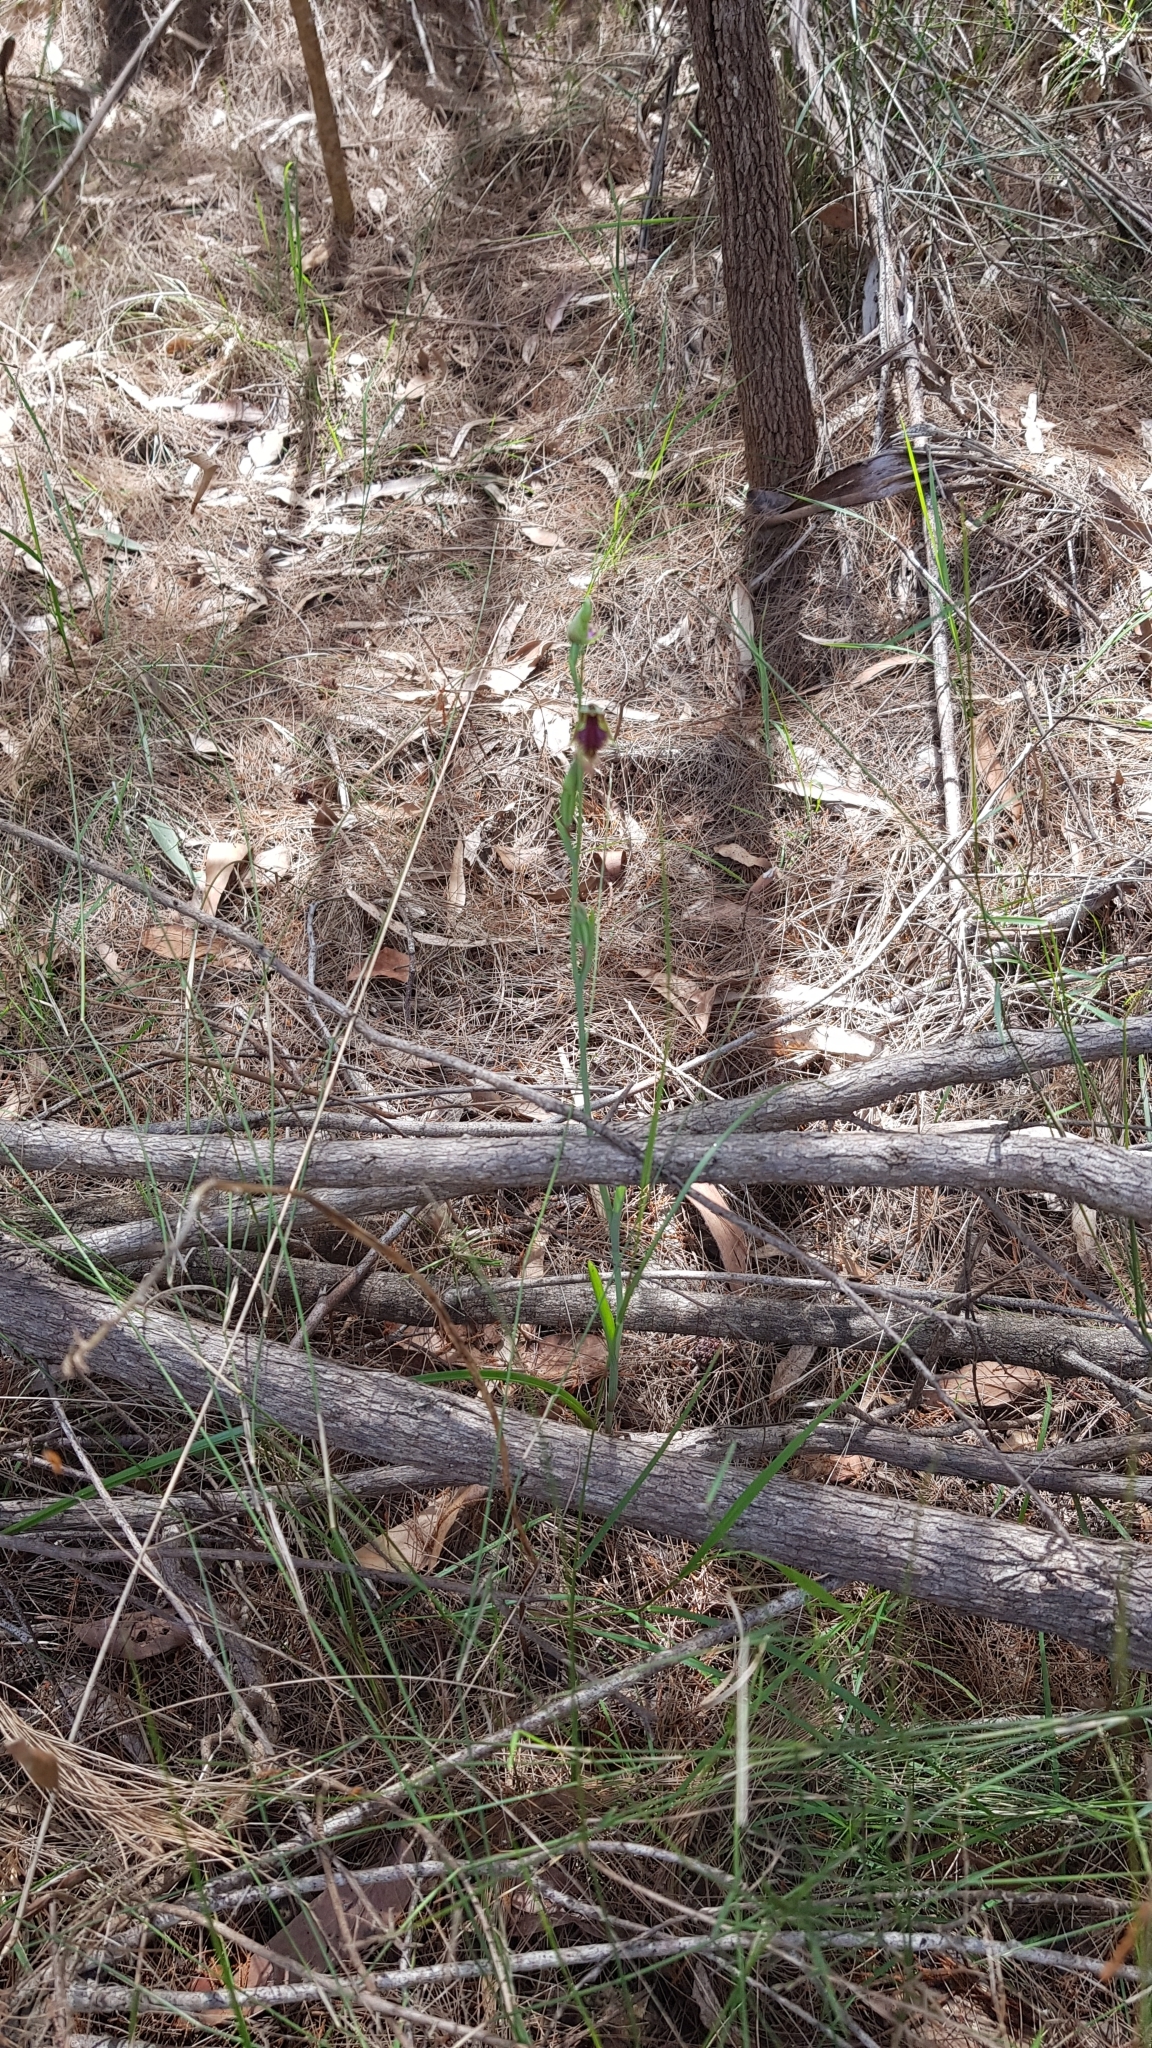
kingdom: Plantae
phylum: Tracheophyta
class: Liliopsida
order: Asparagales
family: Orchidaceae
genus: Calochilus
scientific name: Calochilus robertsonii
